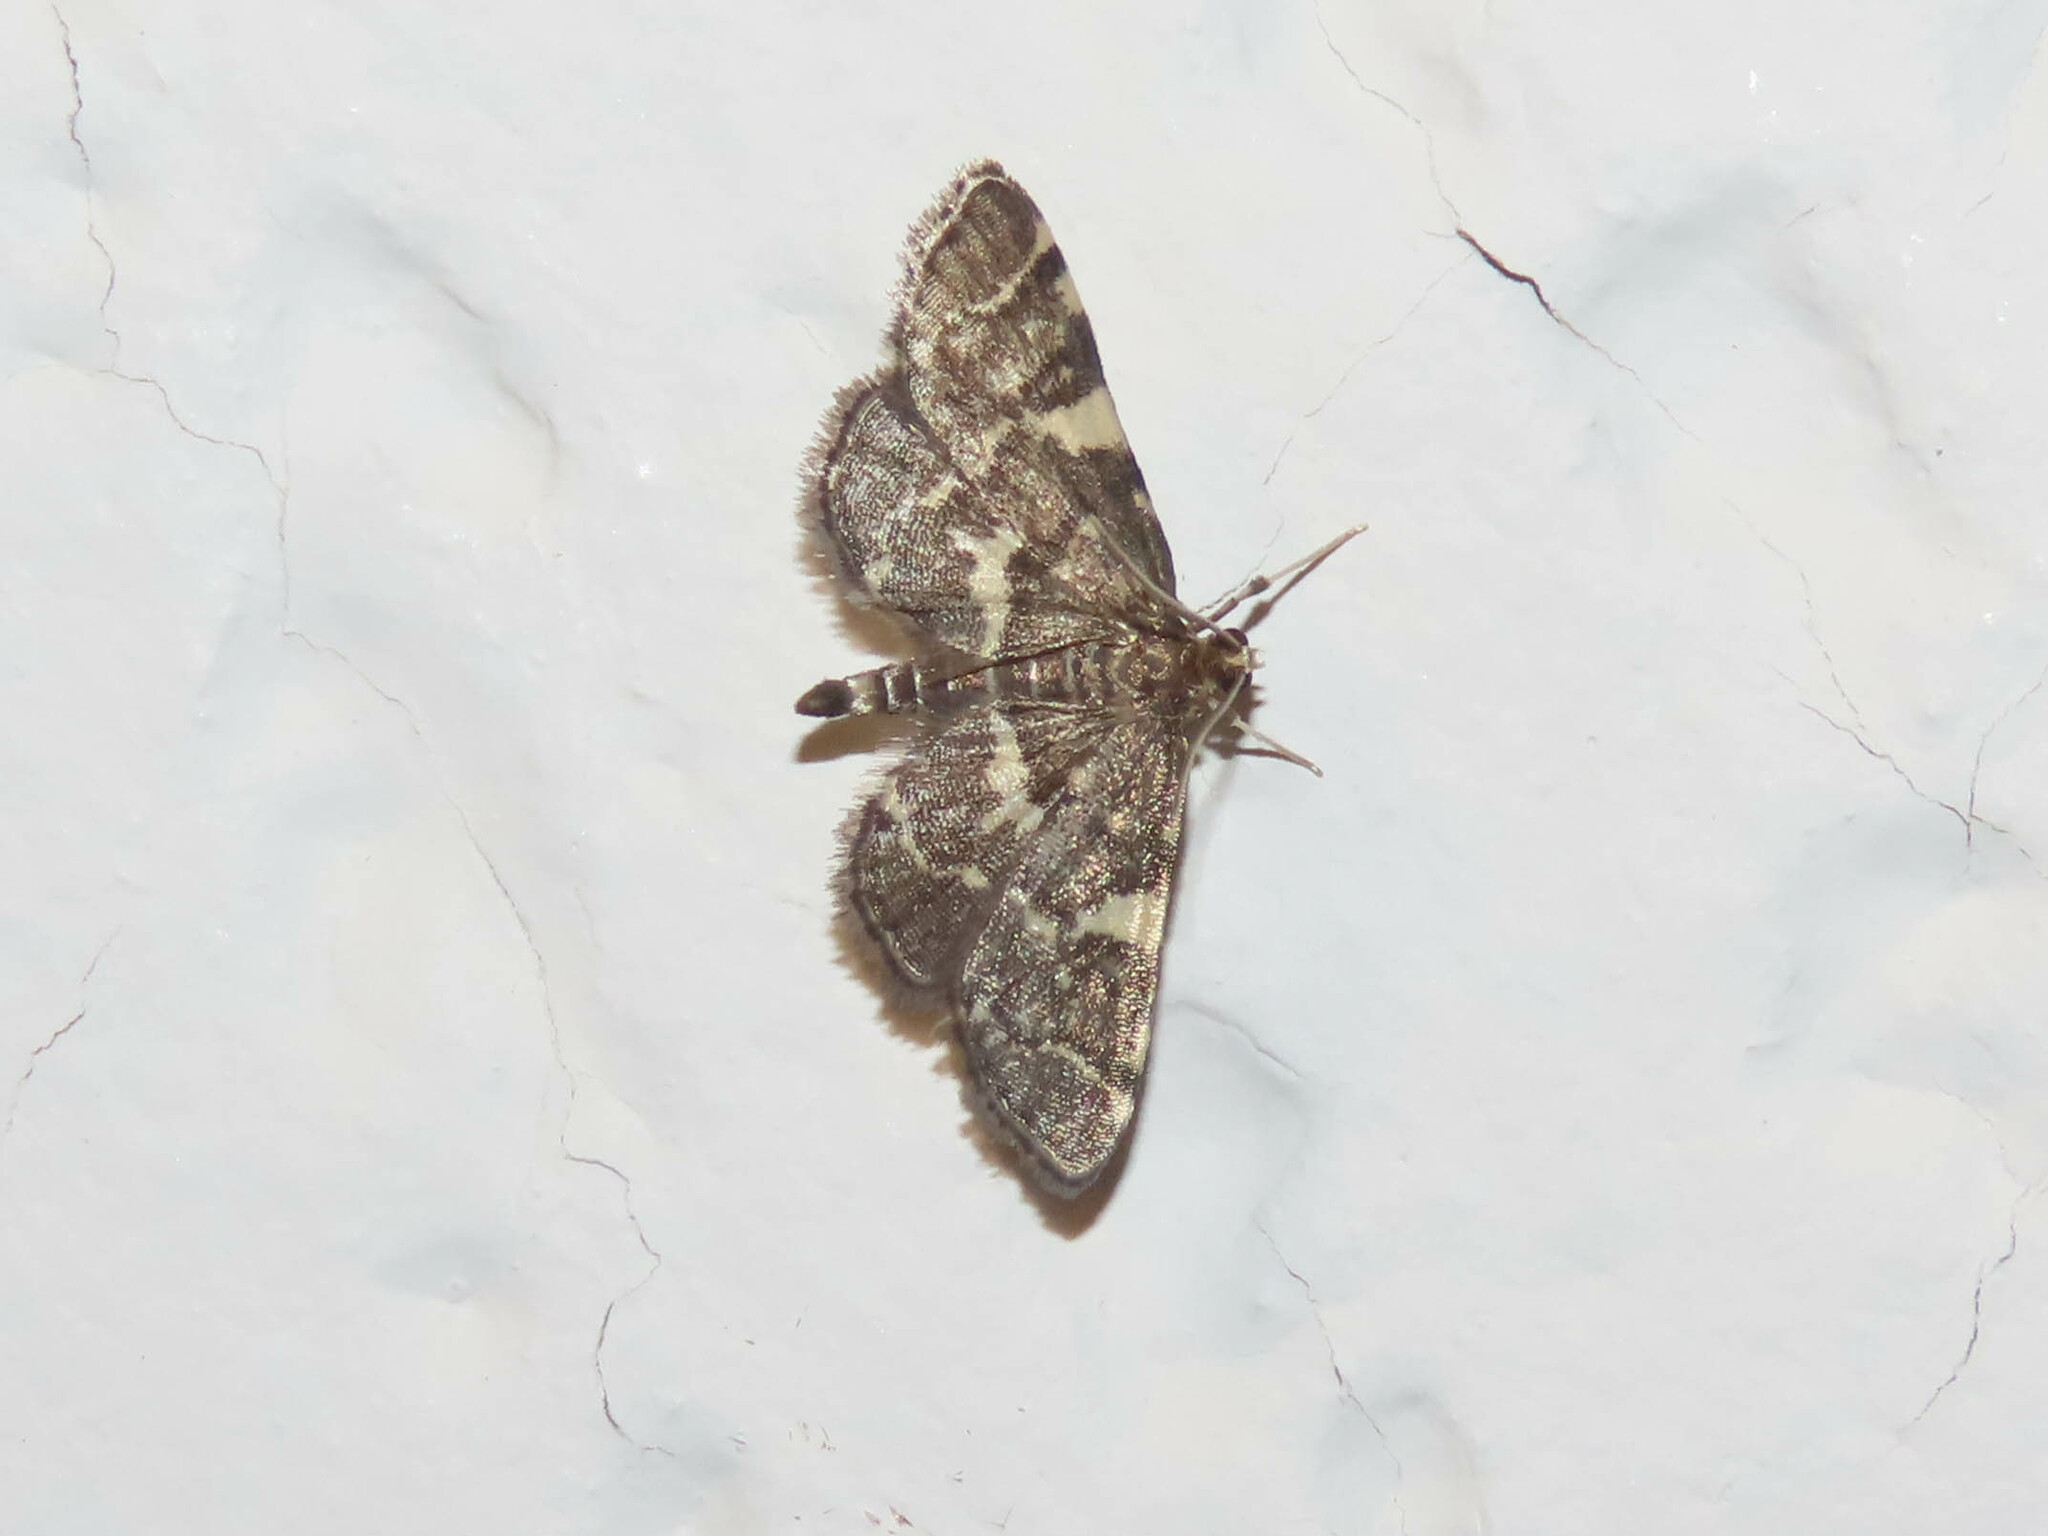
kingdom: Animalia
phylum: Arthropoda
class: Insecta
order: Lepidoptera
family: Crambidae
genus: Anageshna
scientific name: Anageshna primordialis
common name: Yellow-spotted webworm moth
